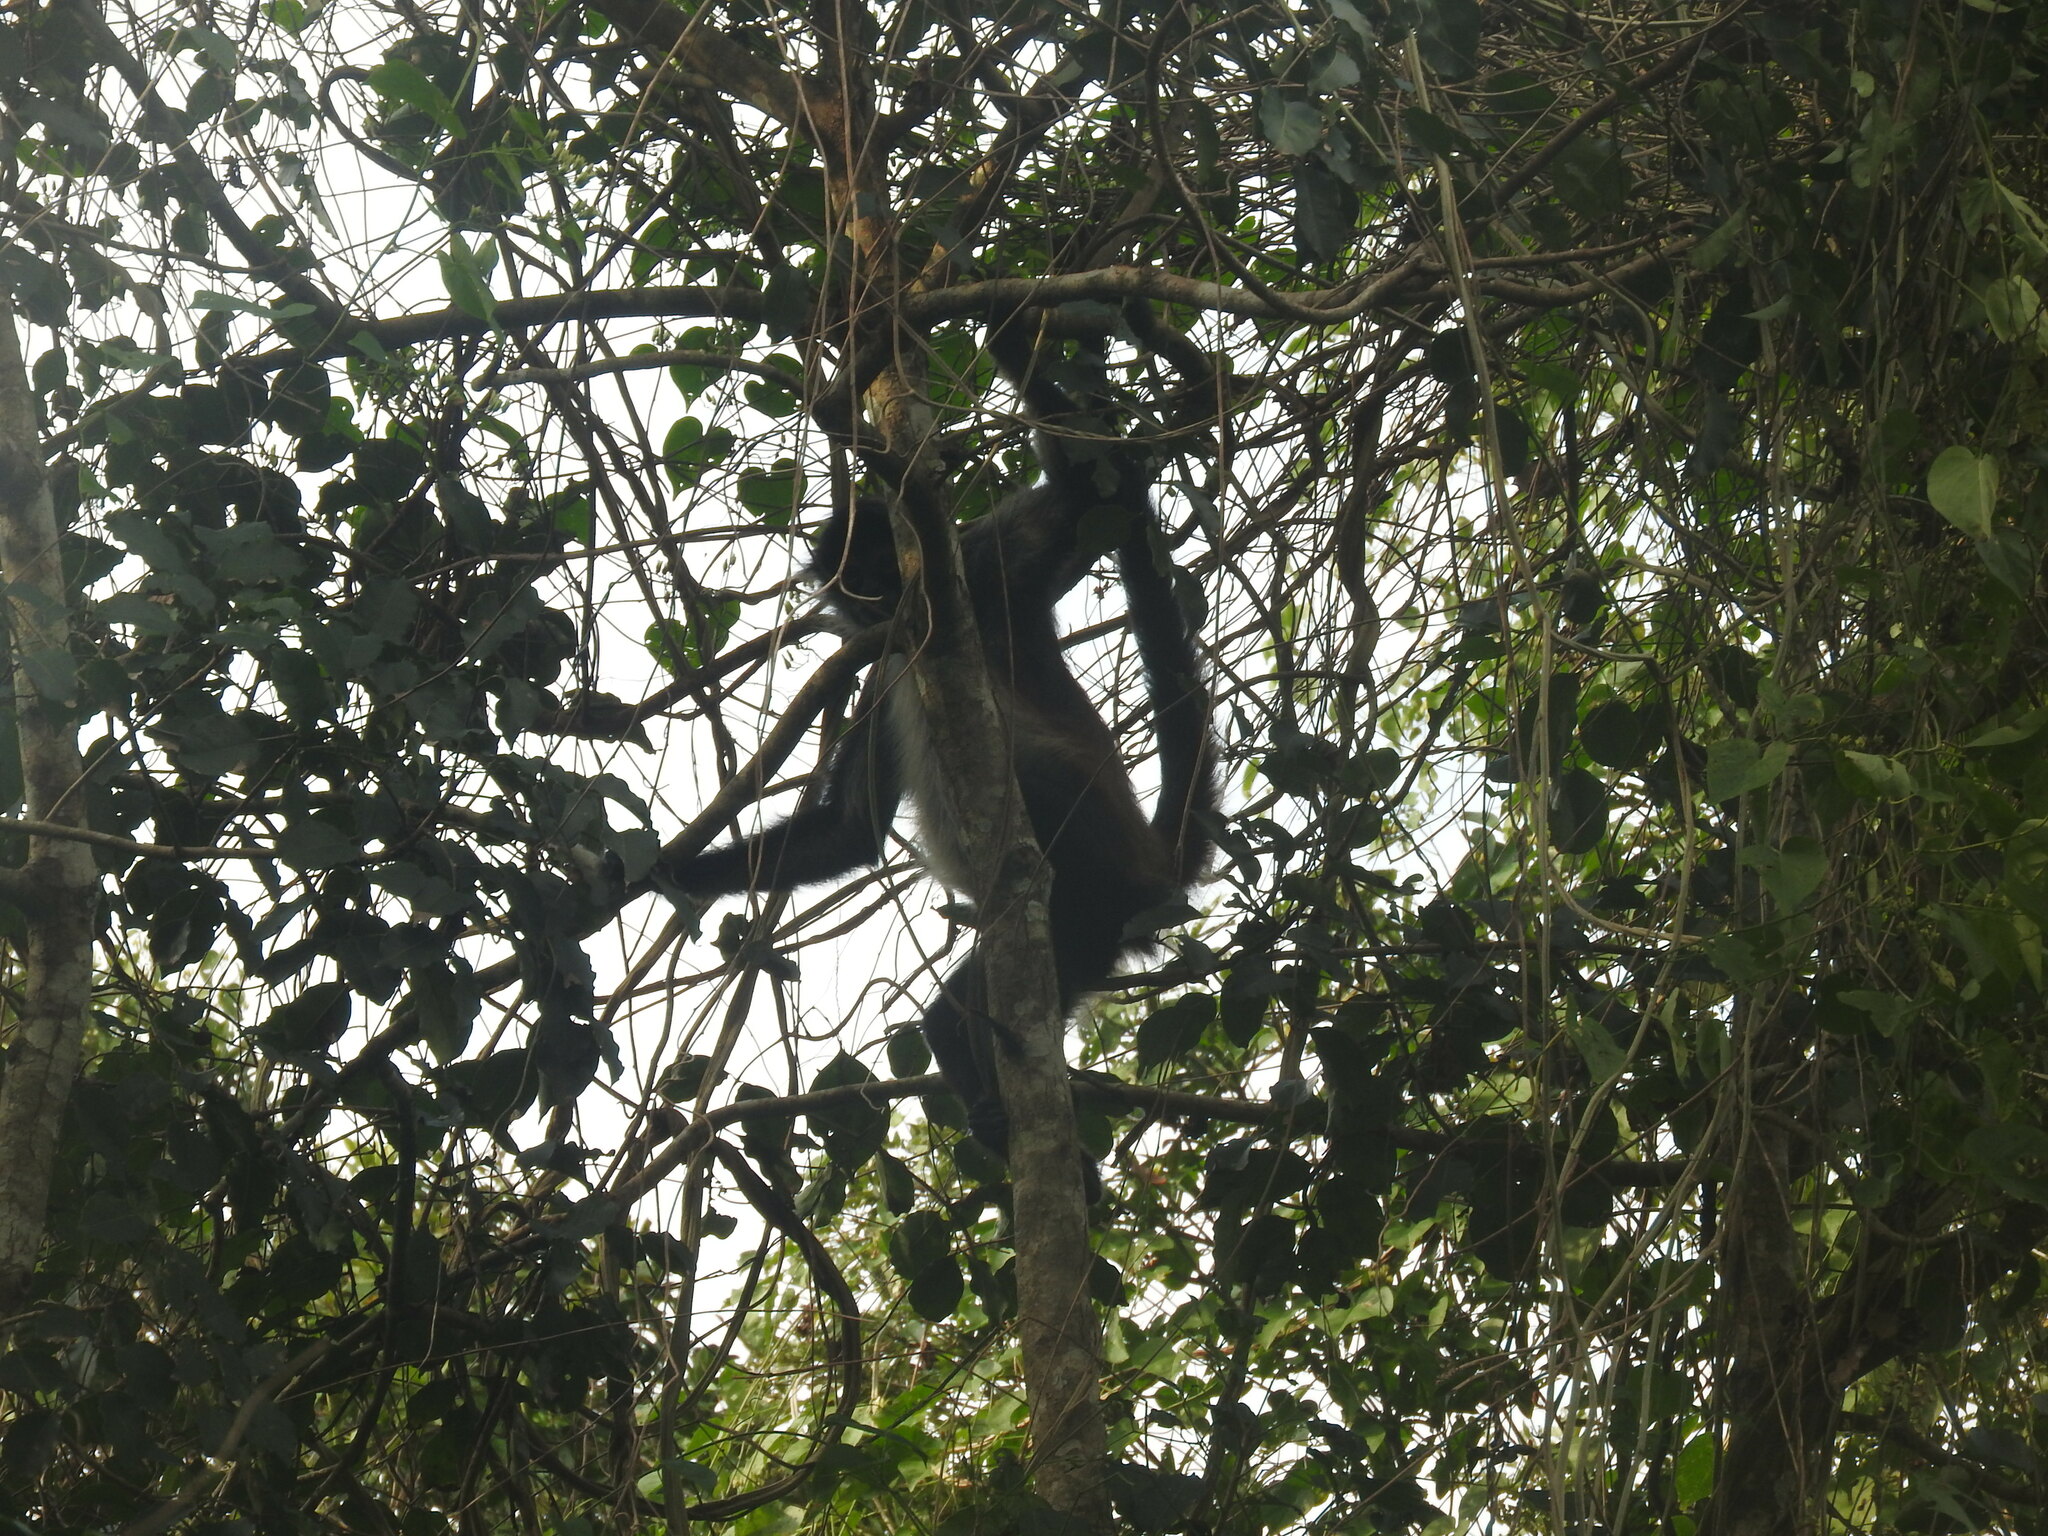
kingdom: Animalia
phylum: Chordata
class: Mammalia
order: Primates
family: Atelidae
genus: Ateles
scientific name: Ateles geoffroyi
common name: Black-handed spider monkey
